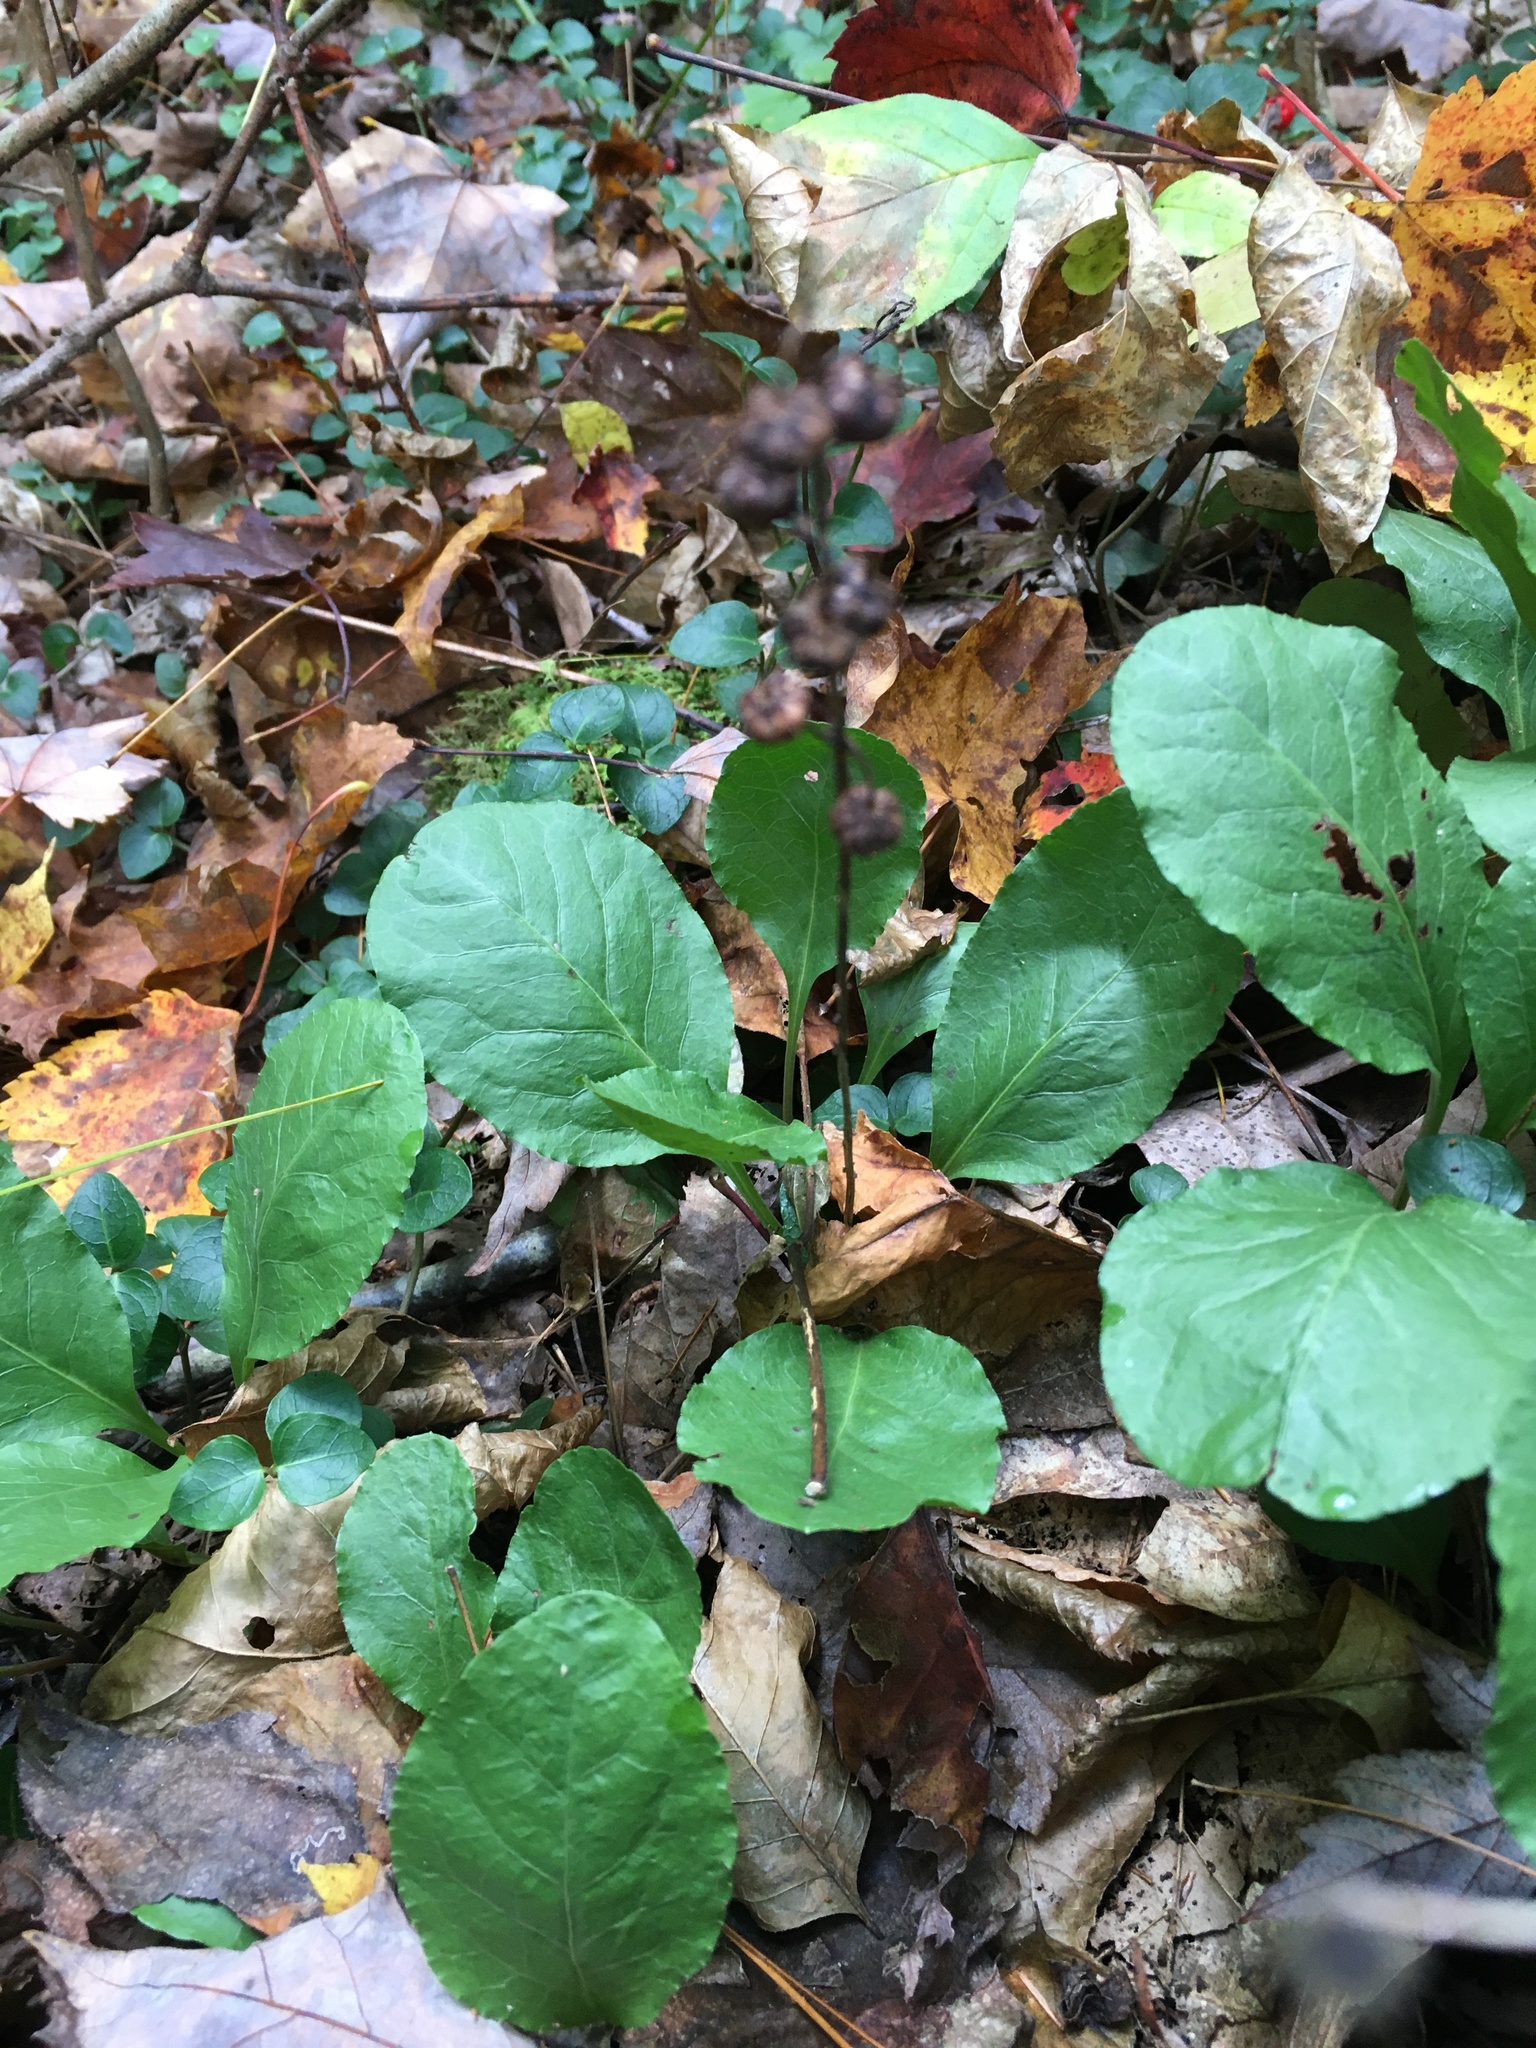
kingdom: Plantae
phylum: Tracheophyta
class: Magnoliopsida
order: Ericales
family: Ericaceae
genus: Pyrola
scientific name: Pyrola elliptica
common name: Shinleaf
